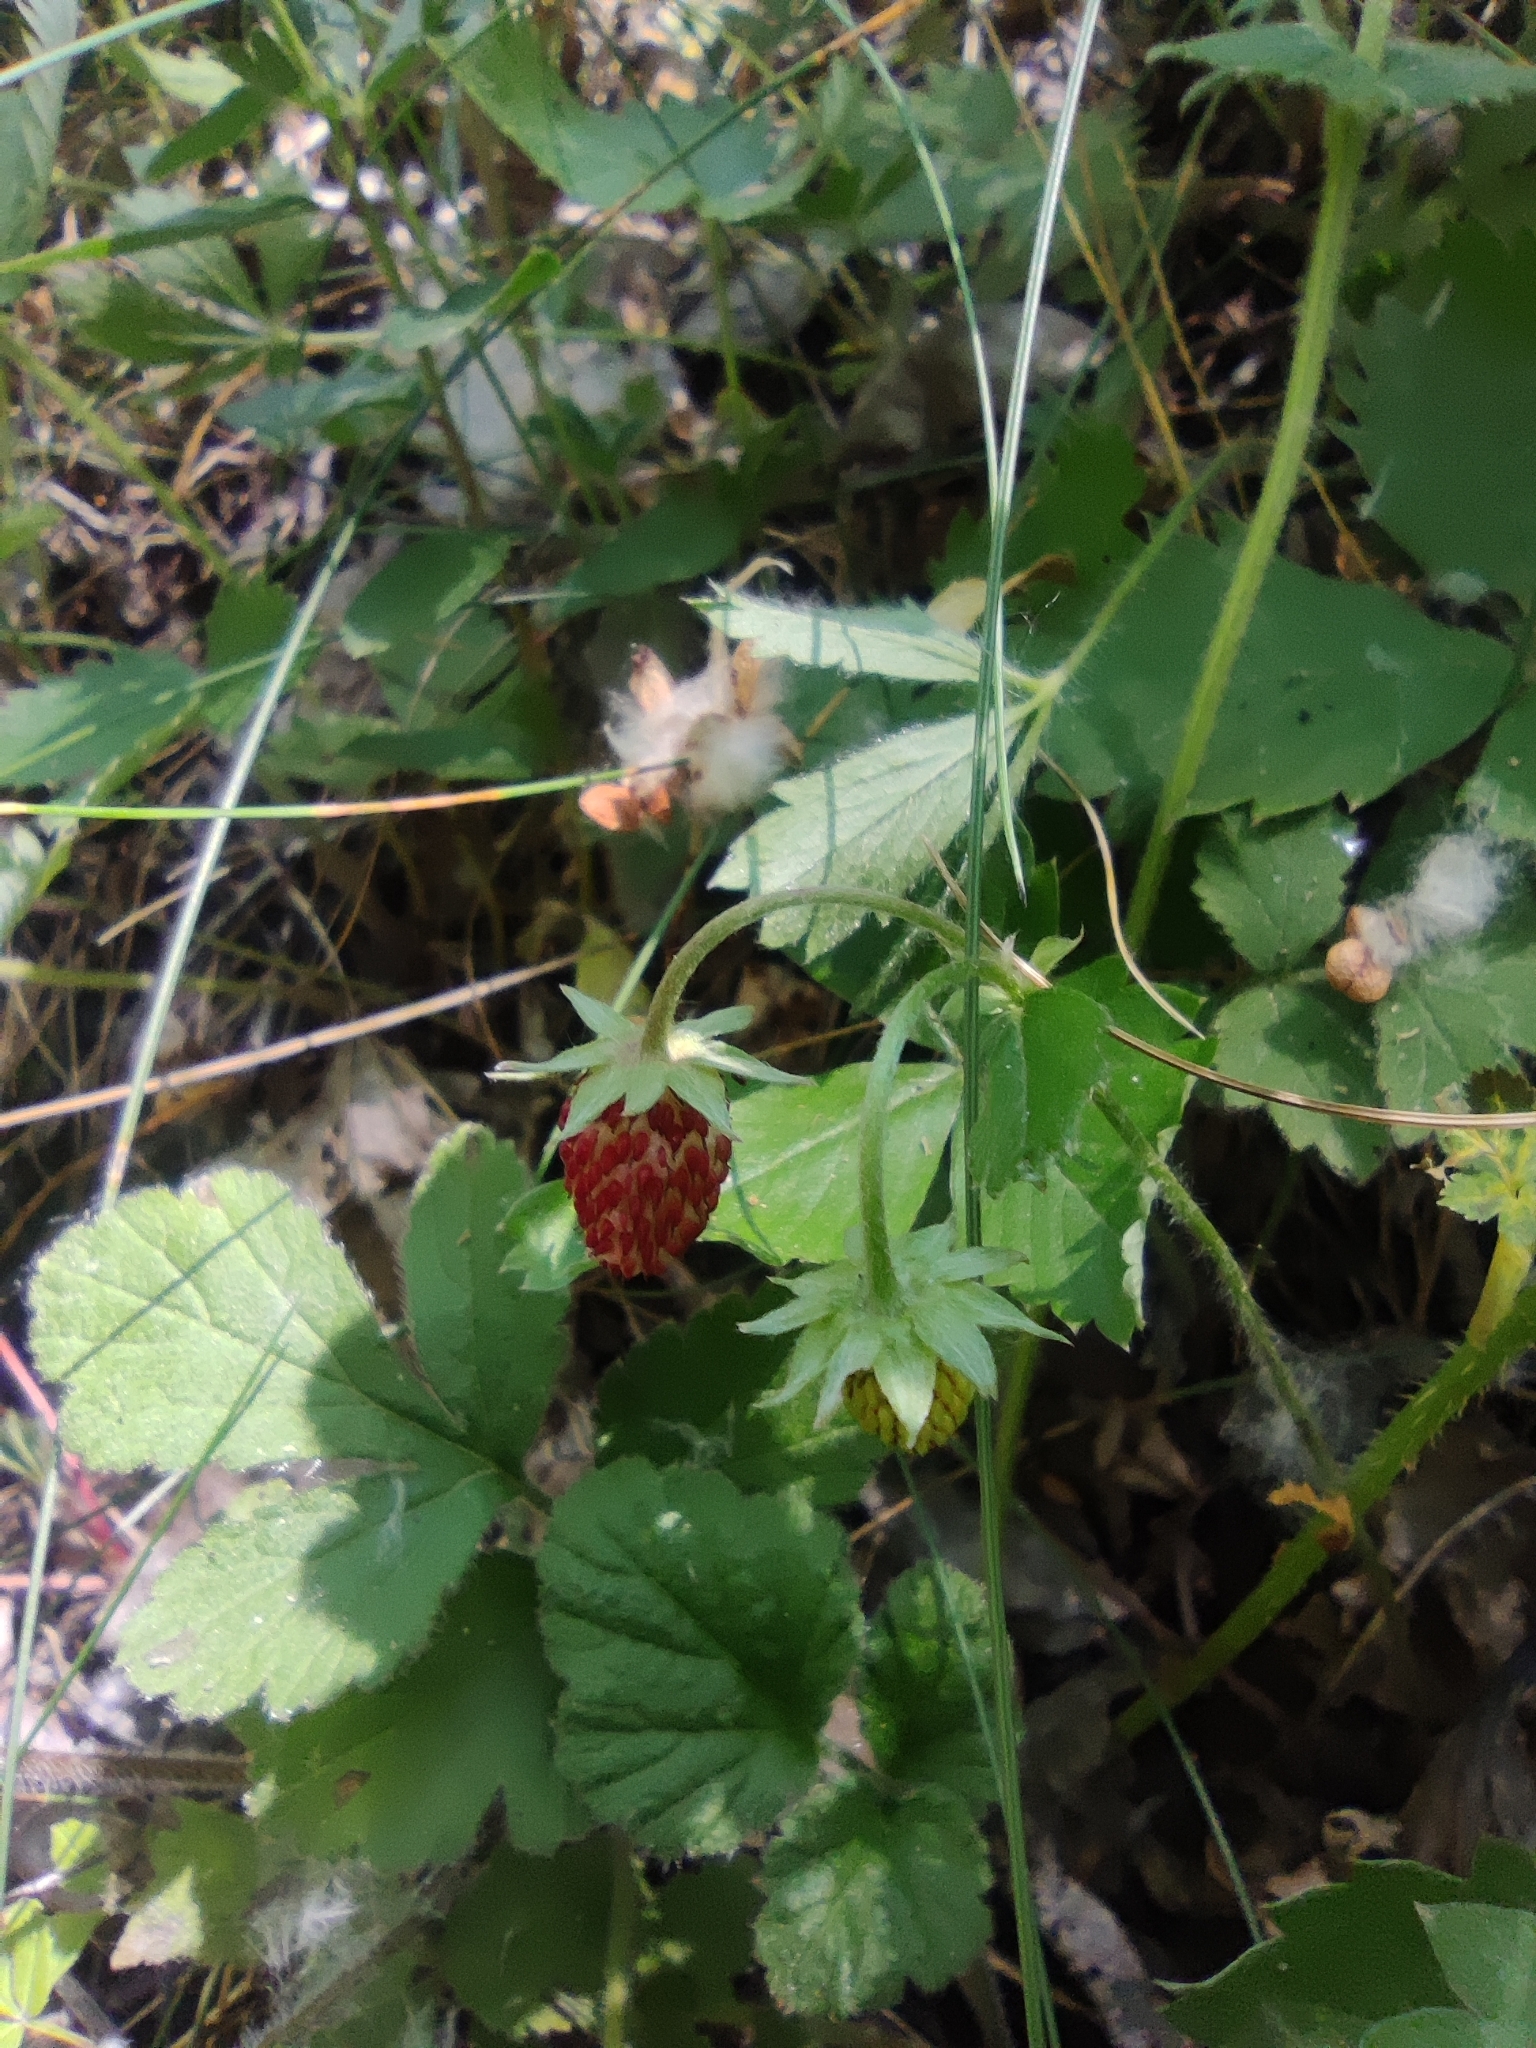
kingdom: Plantae
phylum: Tracheophyta
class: Magnoliopsida
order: Rosales
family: Rosaceae
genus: Fragaria
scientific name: Fragaria vesca
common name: Wild strawberry
